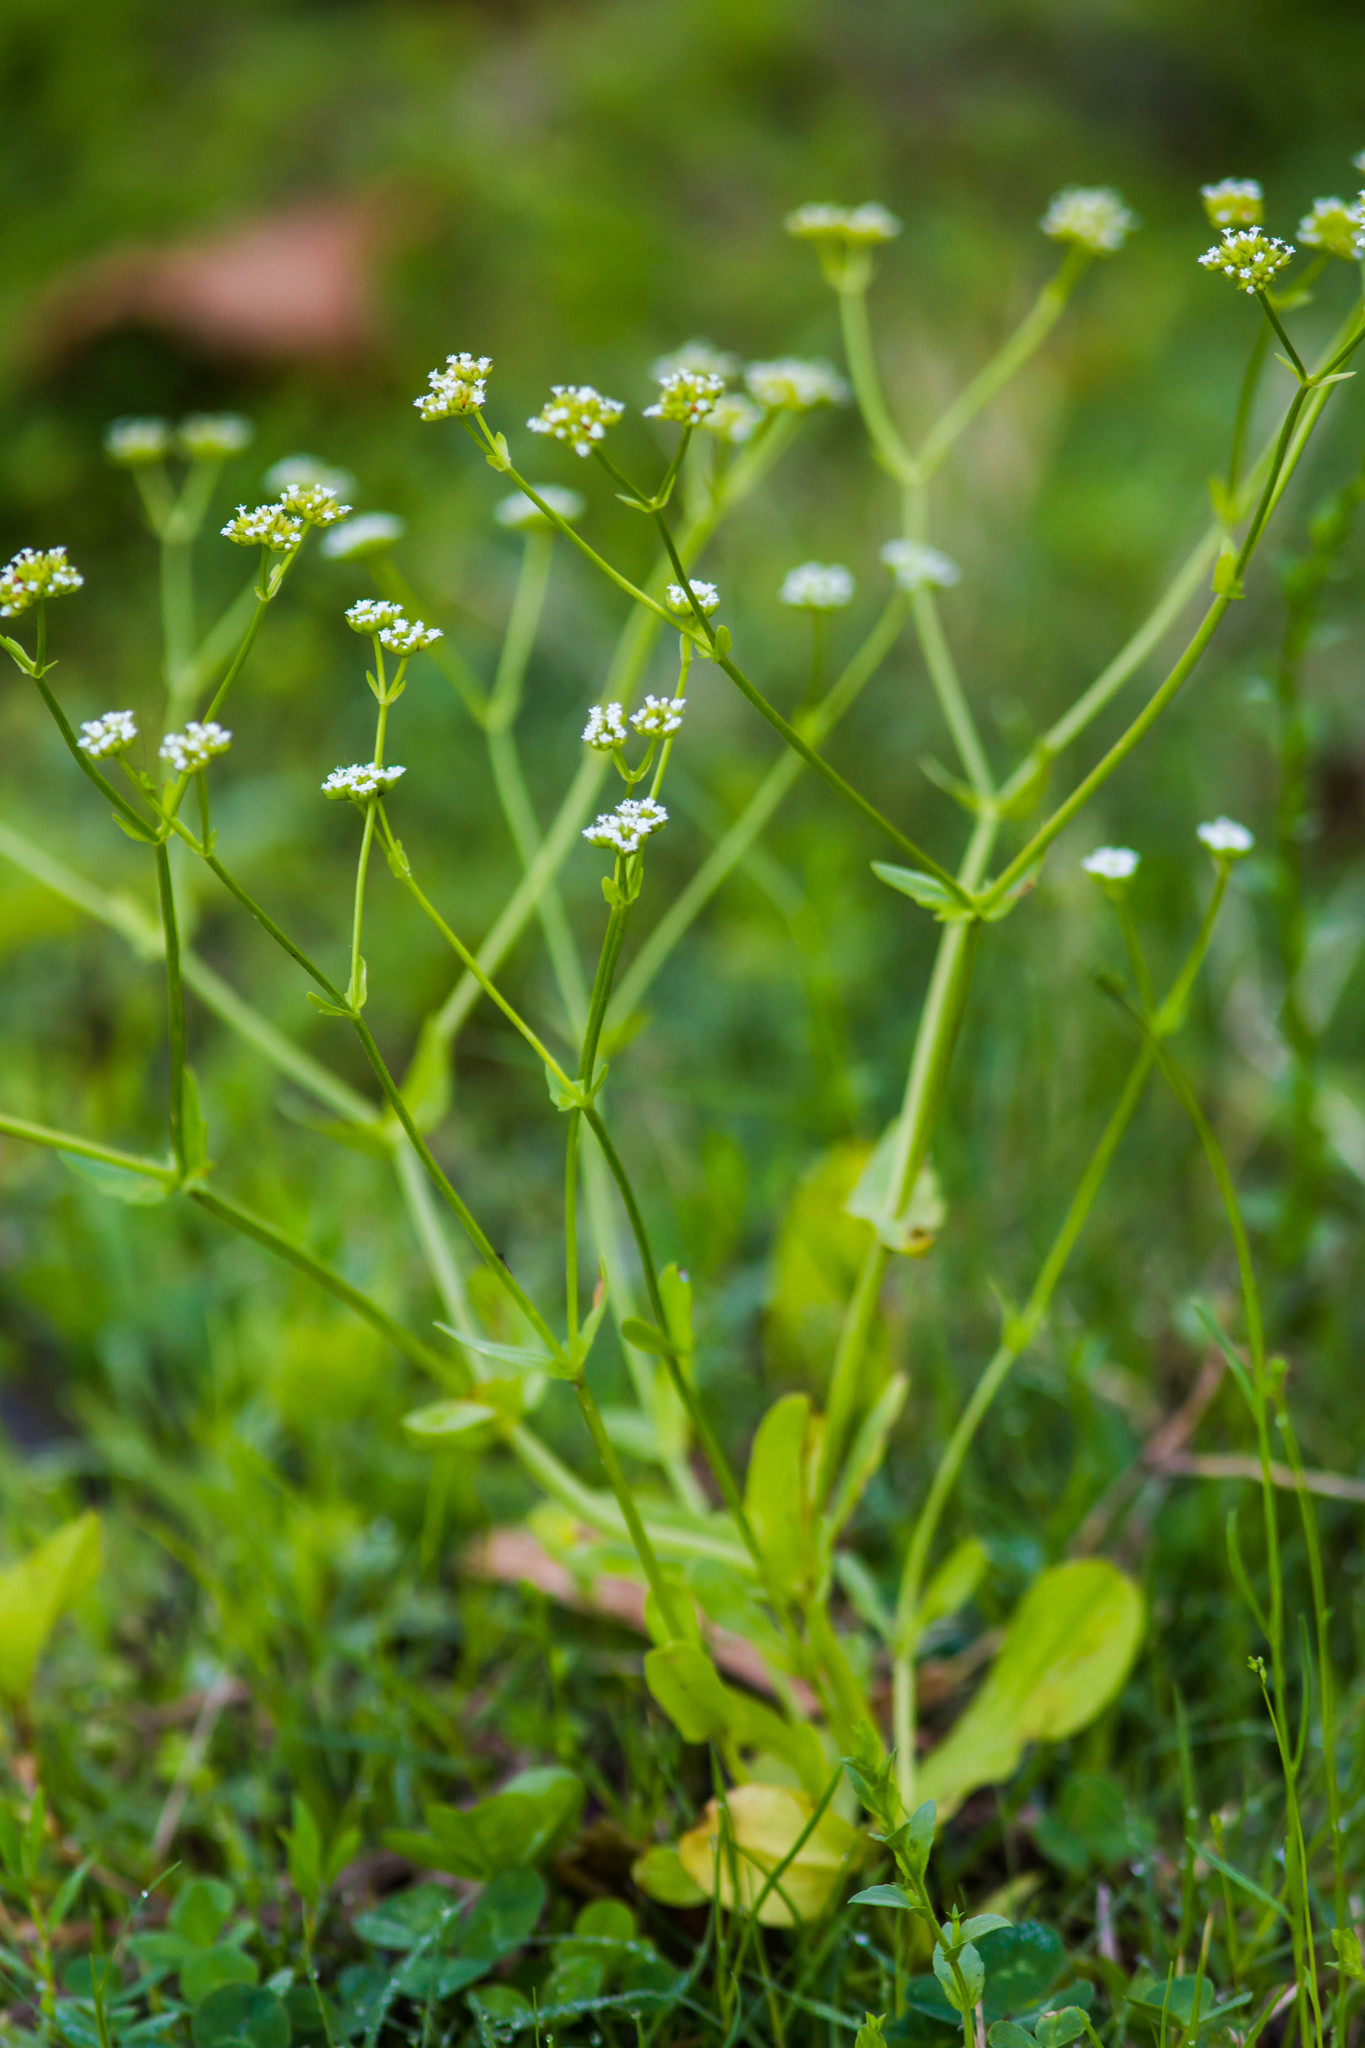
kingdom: Plantae
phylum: Tracheophyta
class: Magnoliopsida
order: Dipsacales
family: Caprifoliaceae
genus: Valerianella
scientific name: Valerianella radiata
